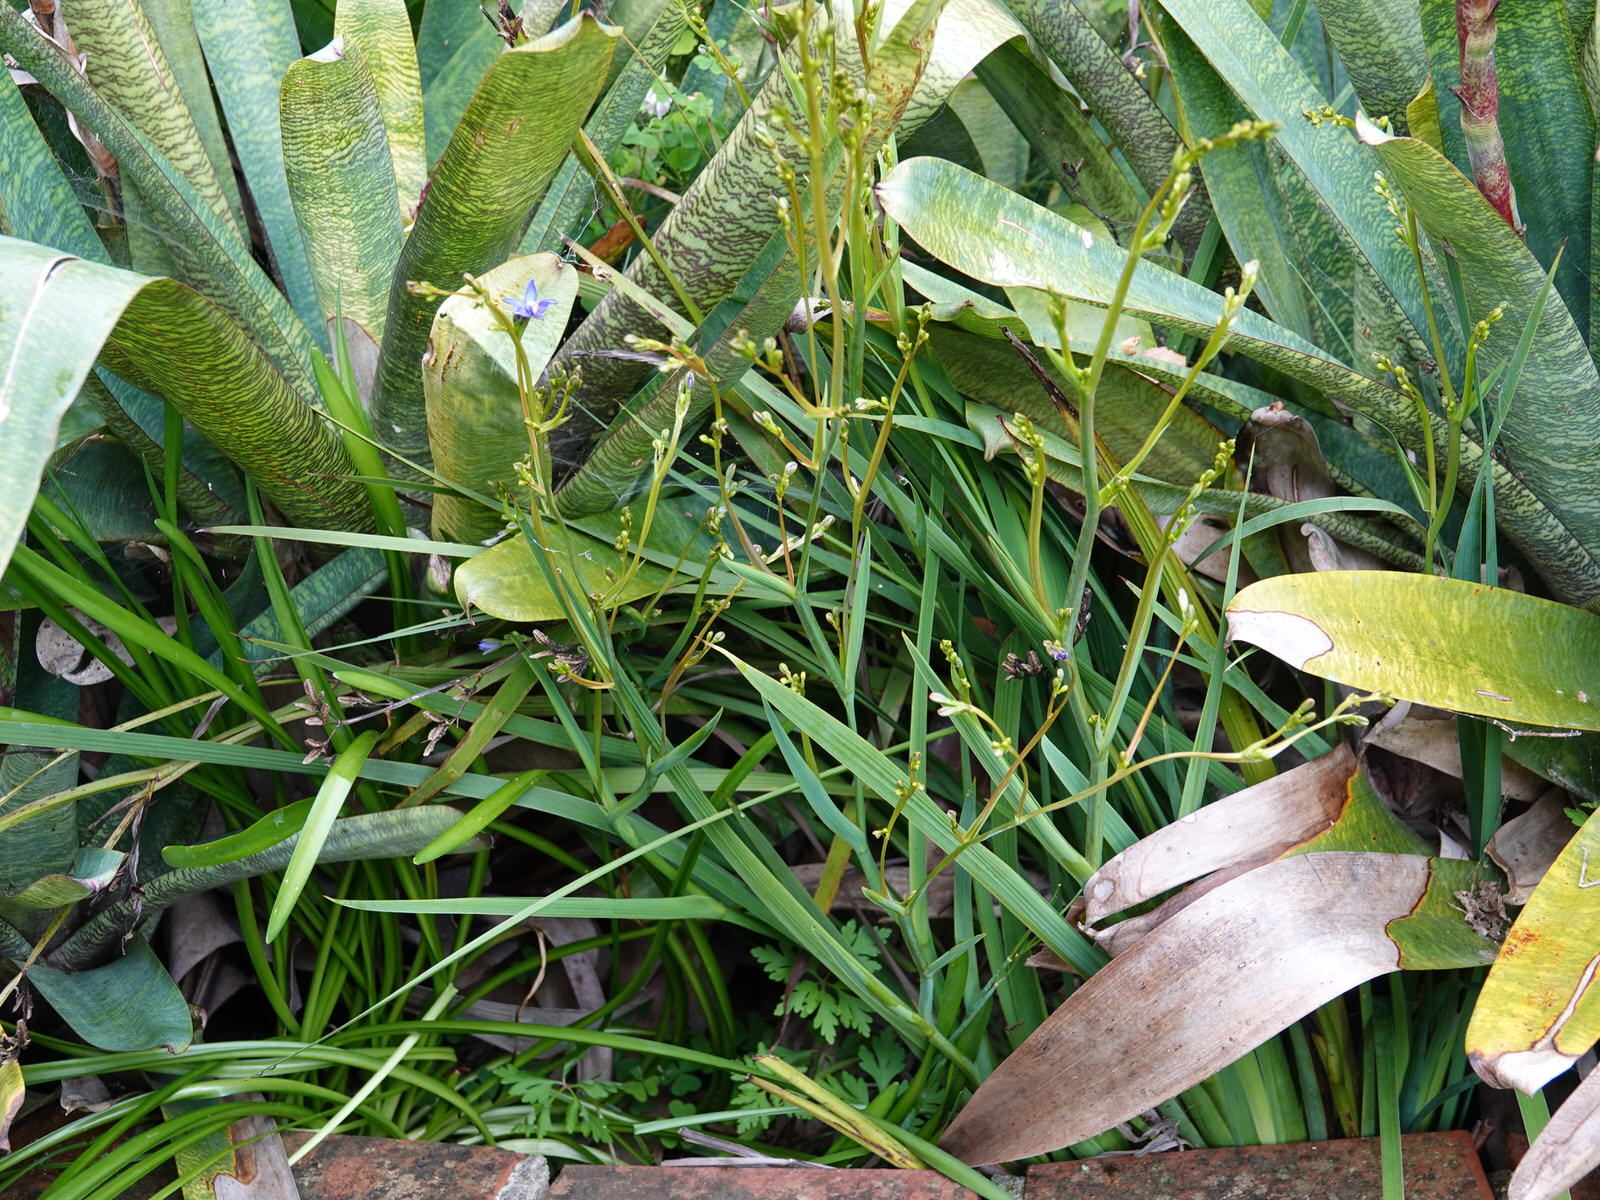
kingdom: Plantae
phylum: Tracheophyta
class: Liliopsida
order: Asparagales
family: Iridaceae
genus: Aristea
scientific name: Aristea ecklonii
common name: Blue corn-lily
